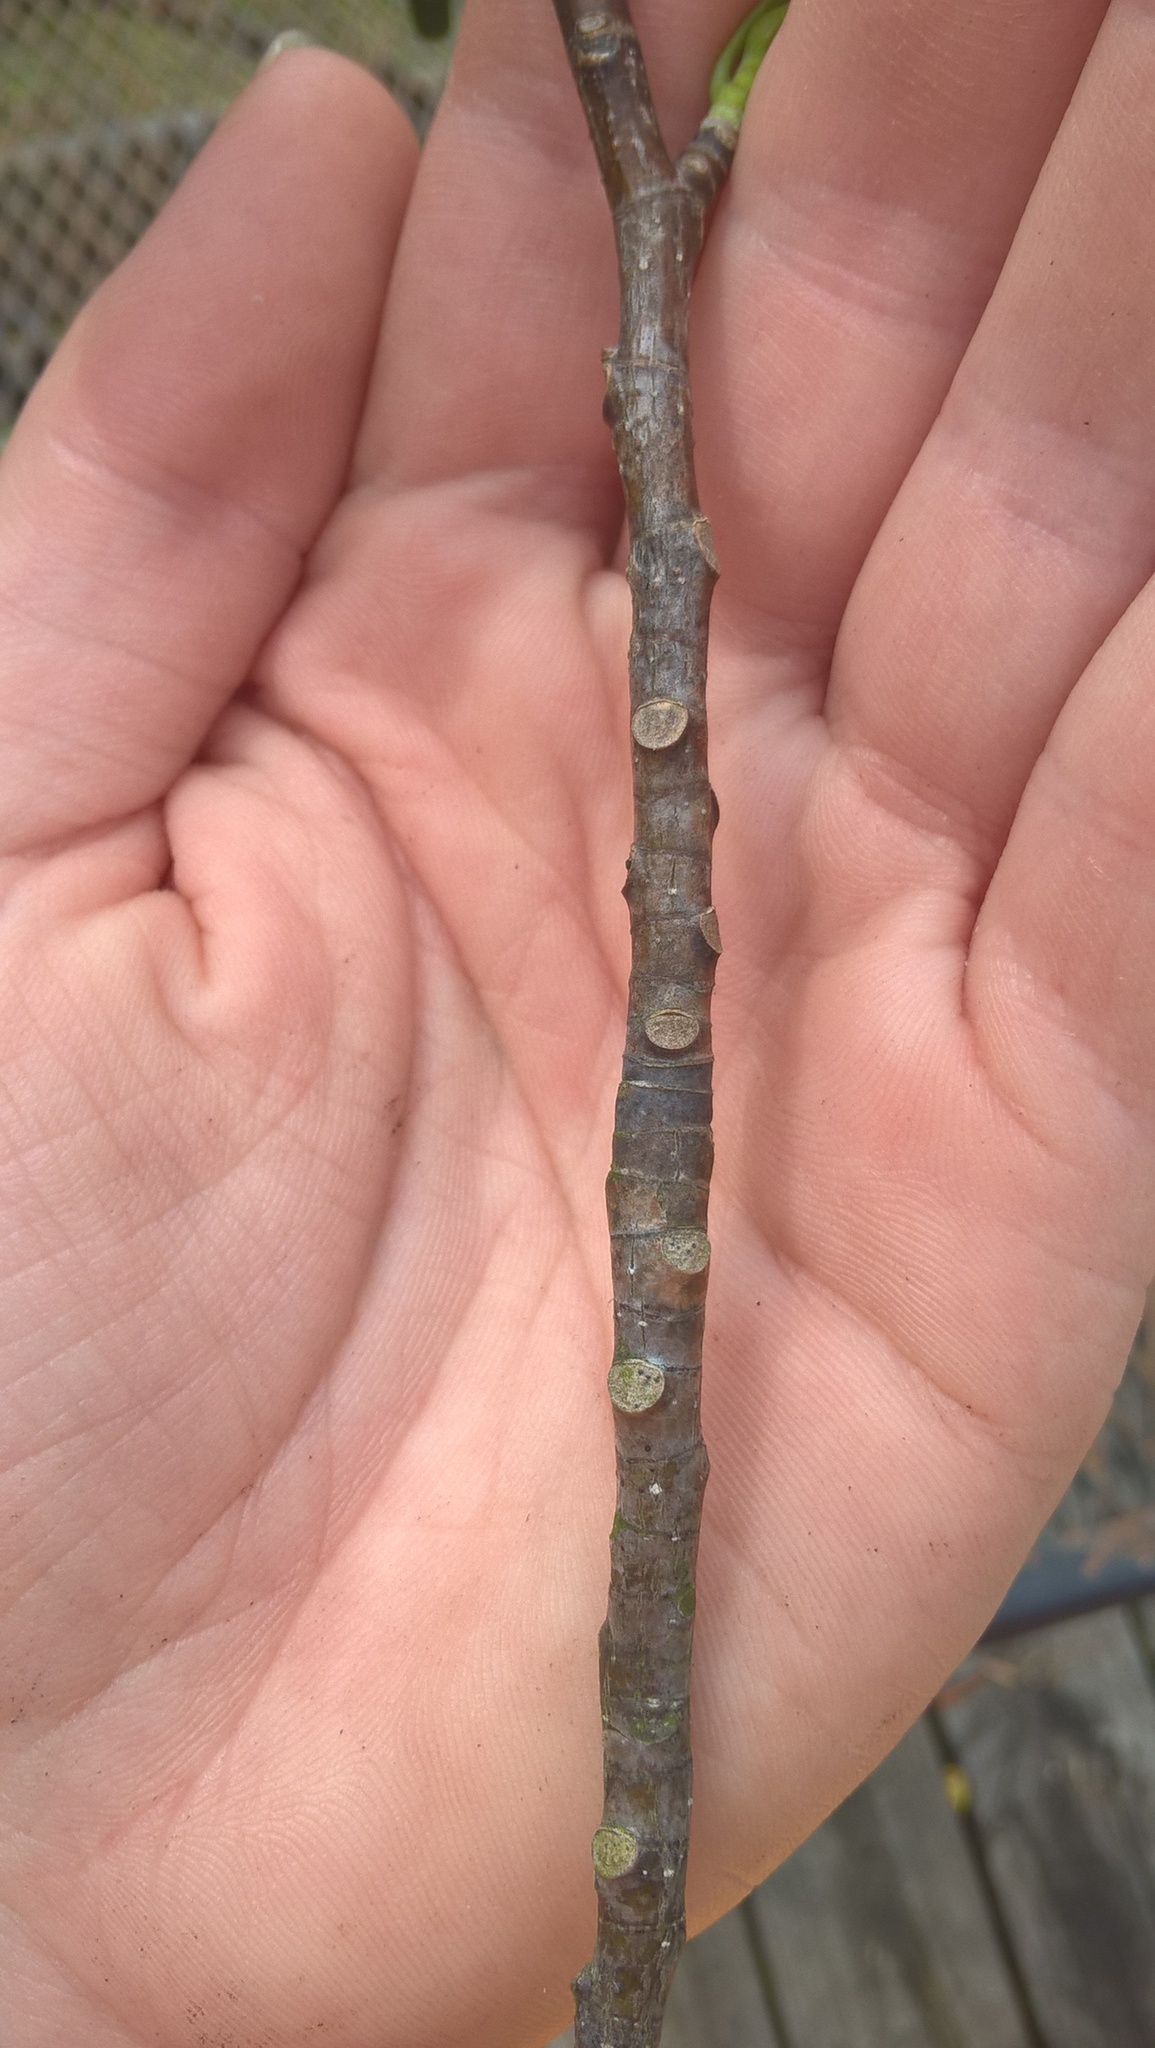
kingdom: Plantae
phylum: Tracheophyta
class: Magnoliopsida
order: Magnoliales
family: Magnoliaceae
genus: Liriodendron
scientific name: Liriodendron tulipifera
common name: Tulip tree
